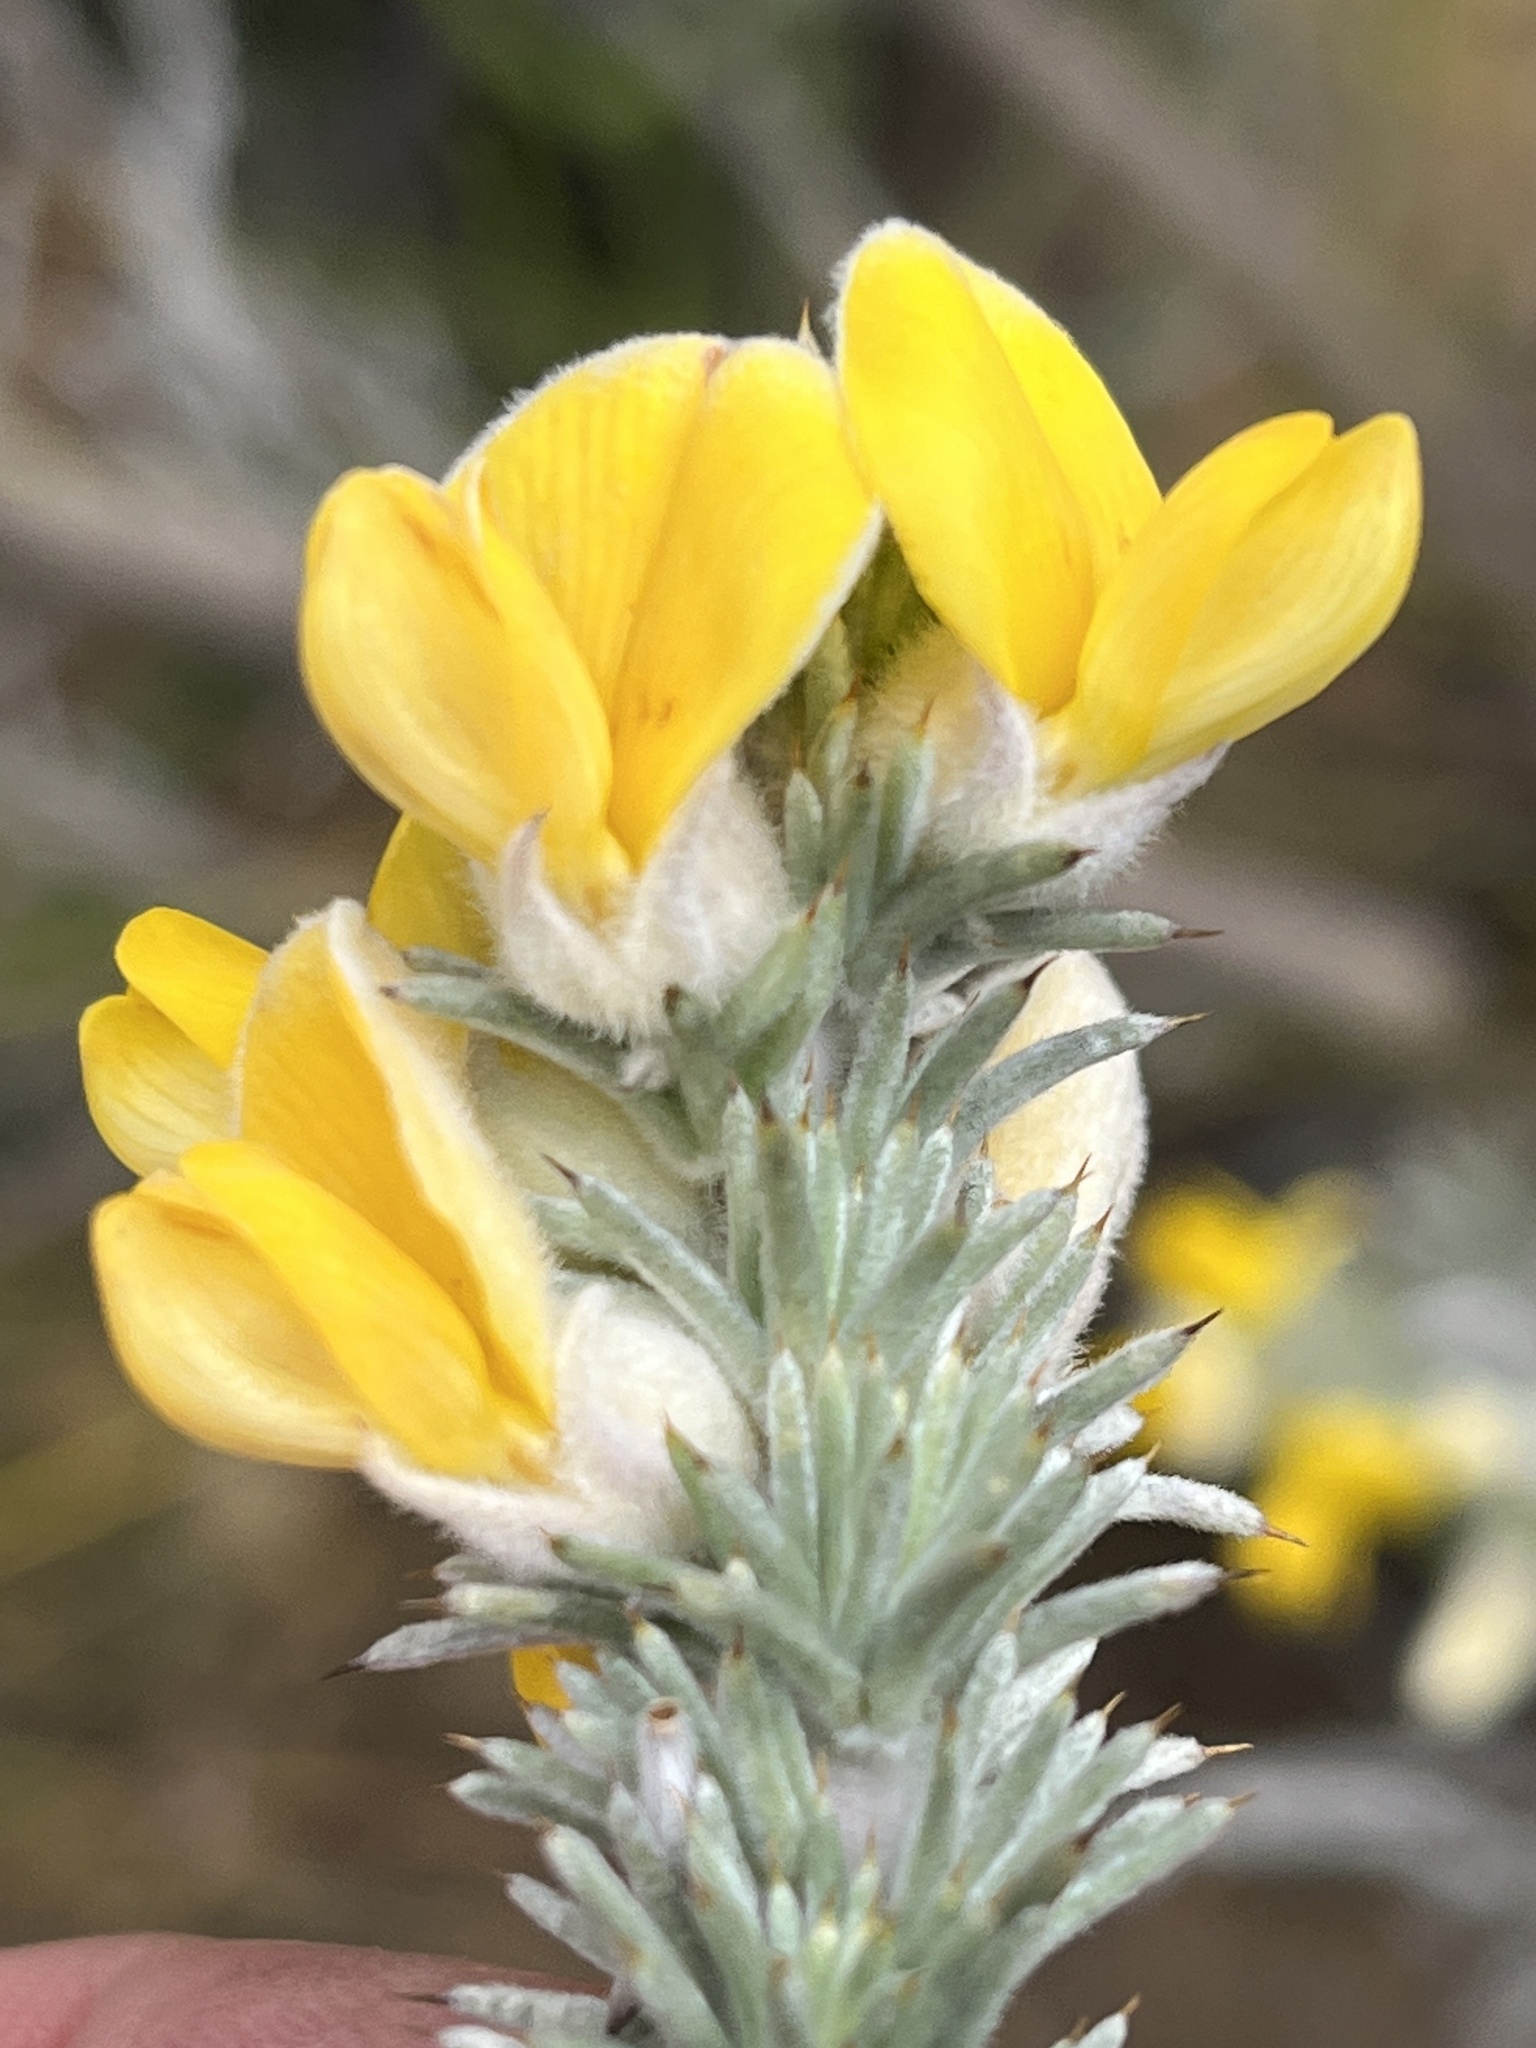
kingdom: Plantae
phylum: Tracheophyta
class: Magnoliopsida
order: Fabales
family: Fabaceae
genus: Aspalathus
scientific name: Aspalathus hystrix
